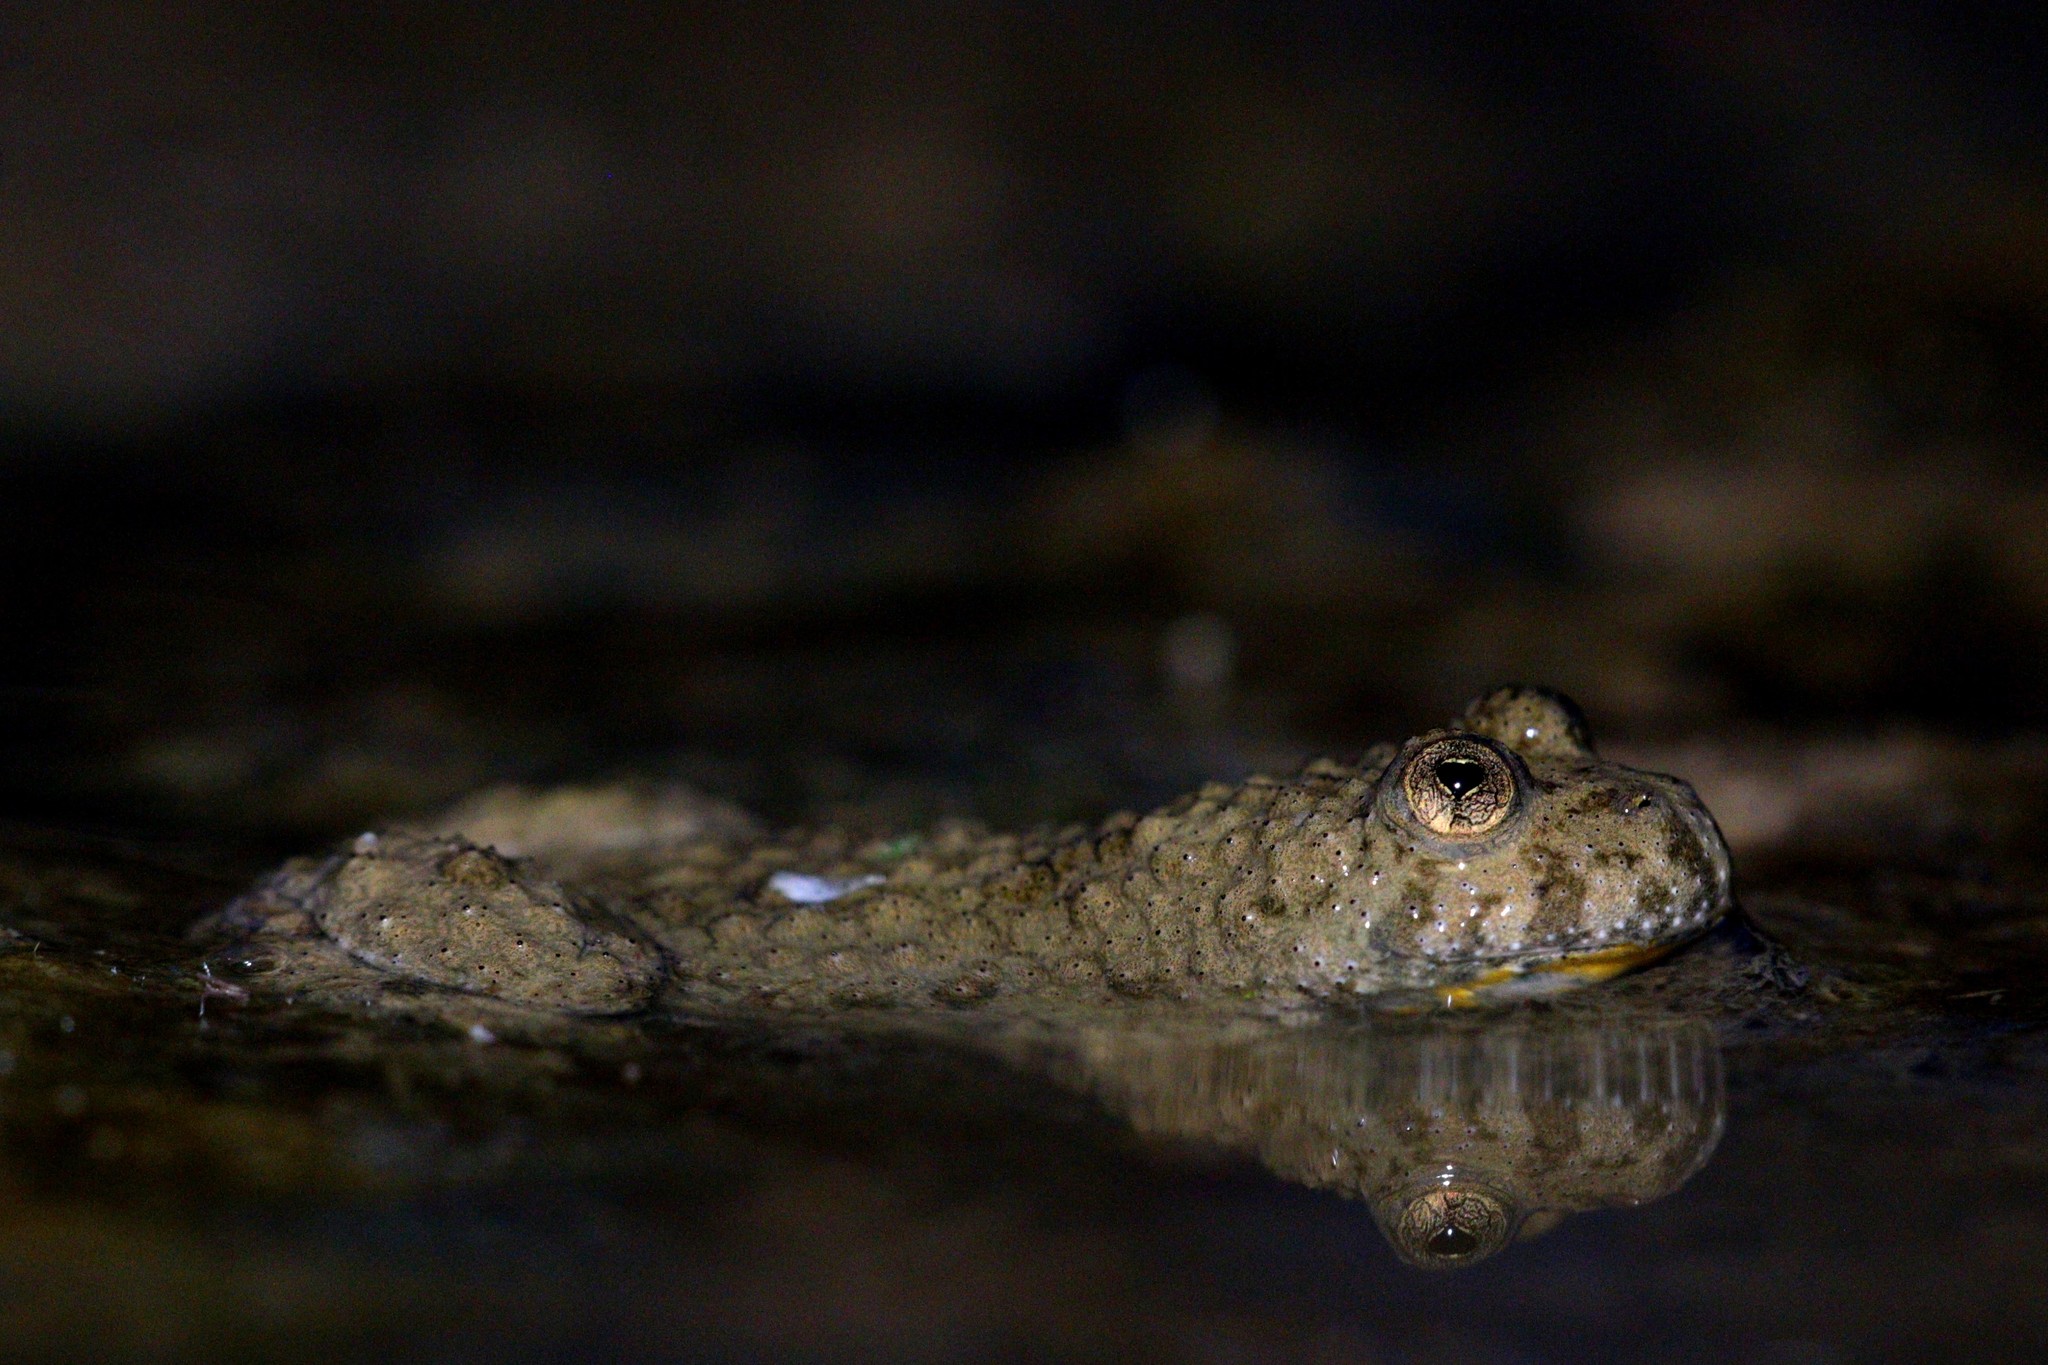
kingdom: Animalia
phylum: Chordata
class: Amphibia
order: Anura
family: Bombinatoridae
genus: Bombina
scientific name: Bombina variegata
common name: Yellow-bellied toad
